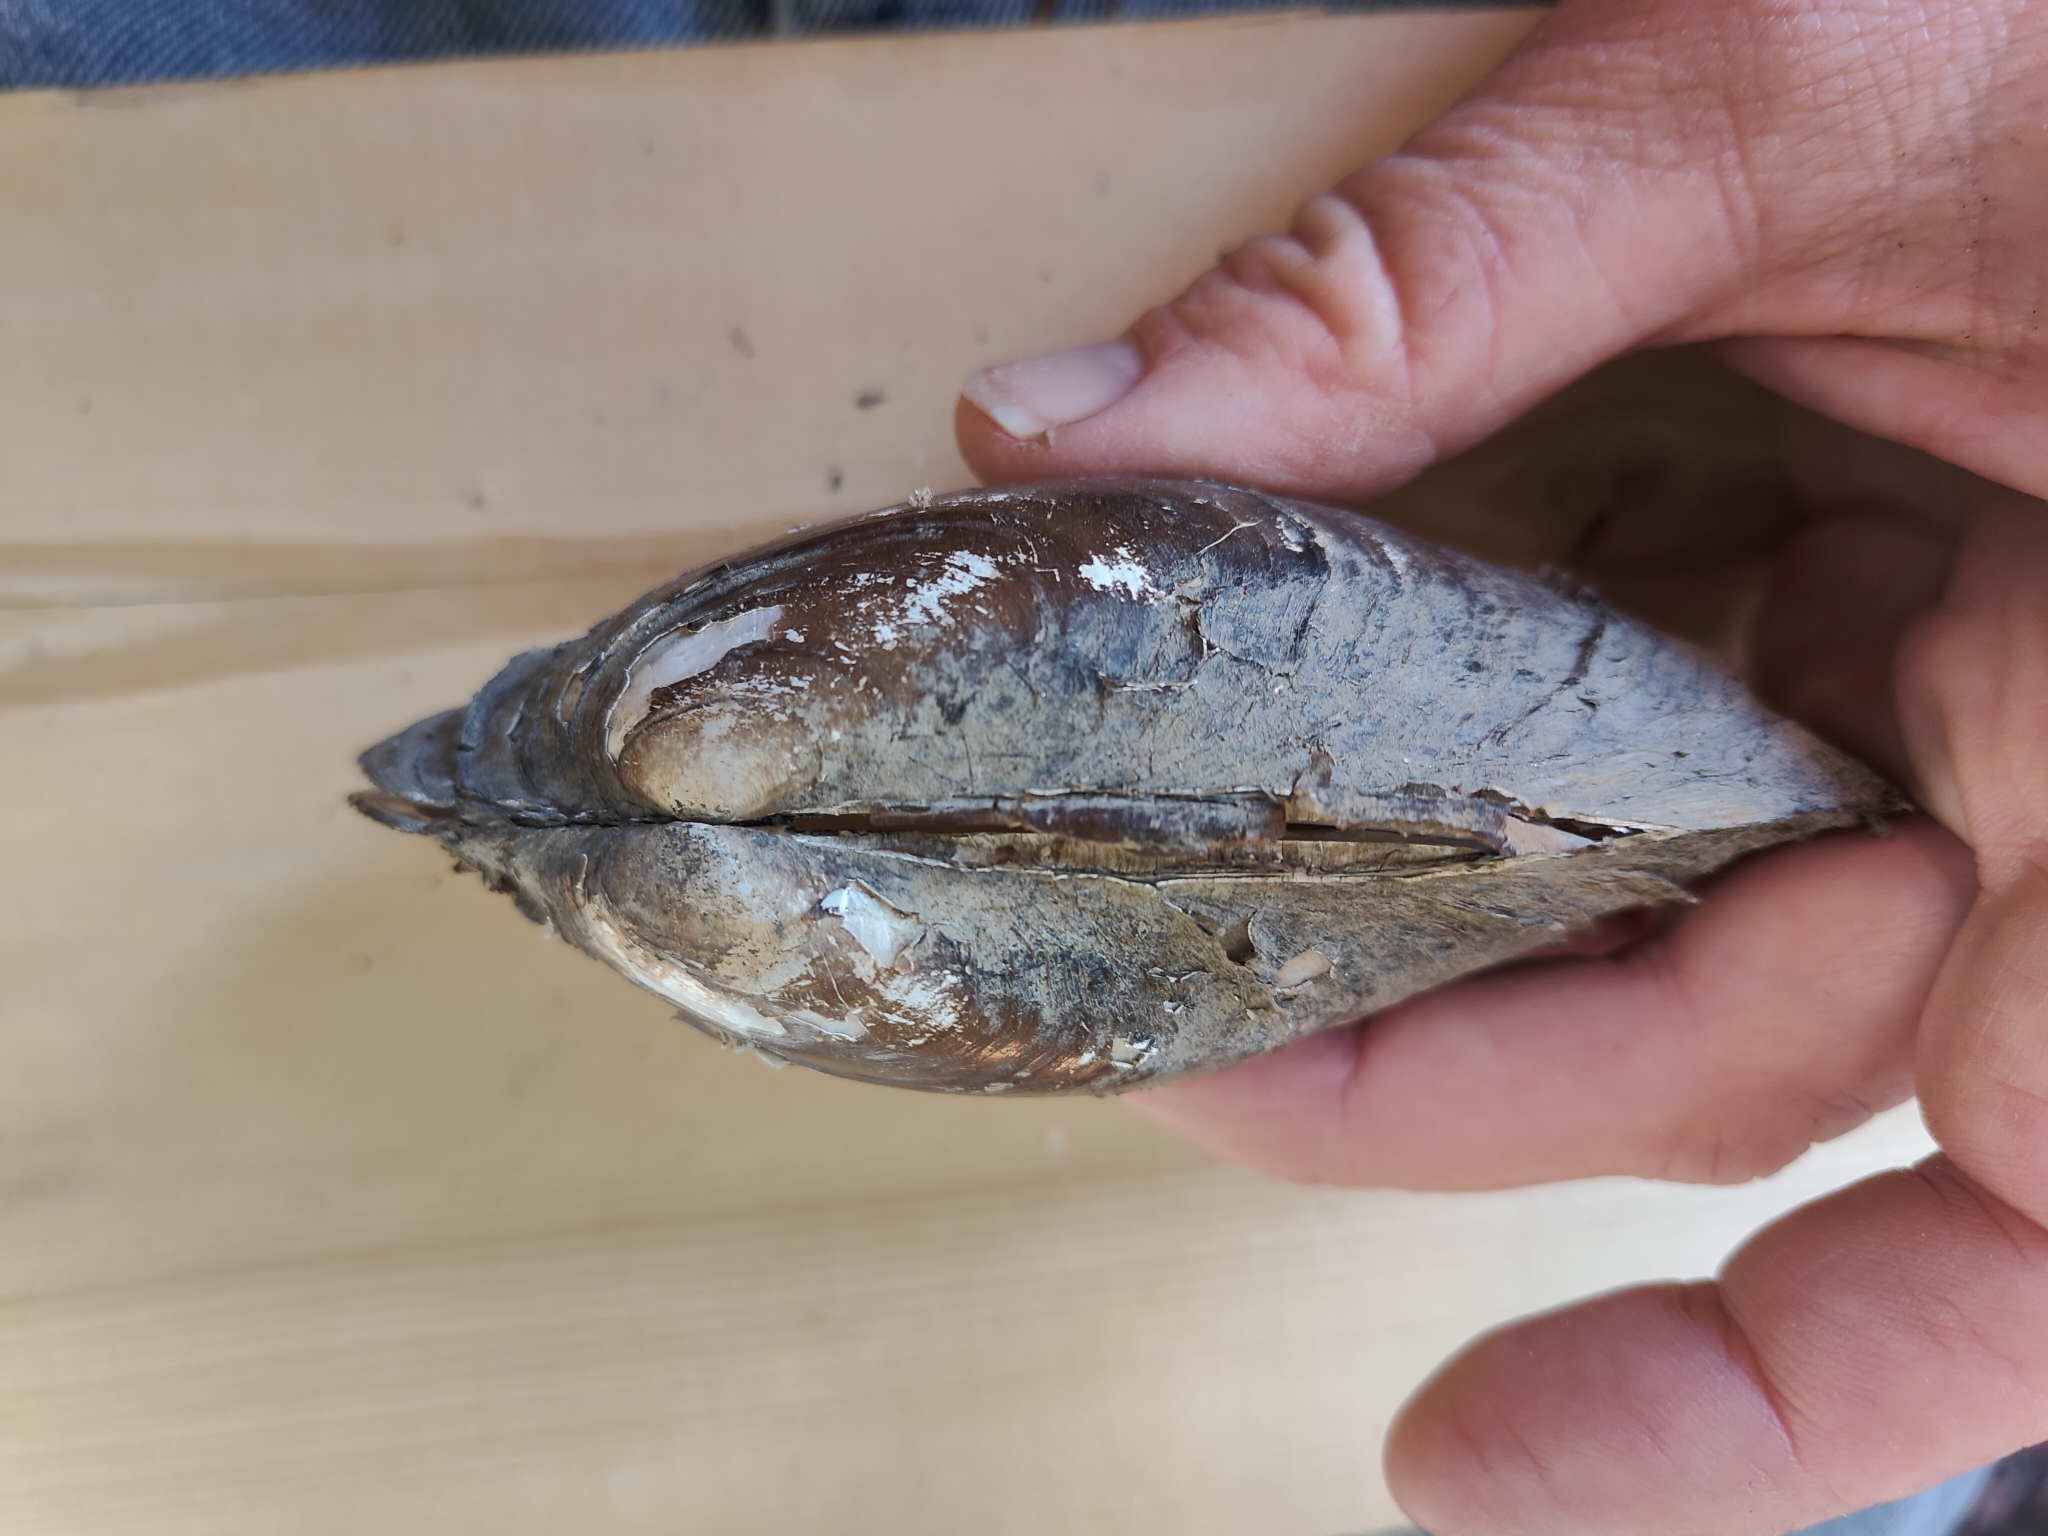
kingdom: Animalia
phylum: Mollusca
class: Bivalvia
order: Unionida
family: Unionidae
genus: Potamilus
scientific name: Potamilus fragilis
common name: Fragile papershell
